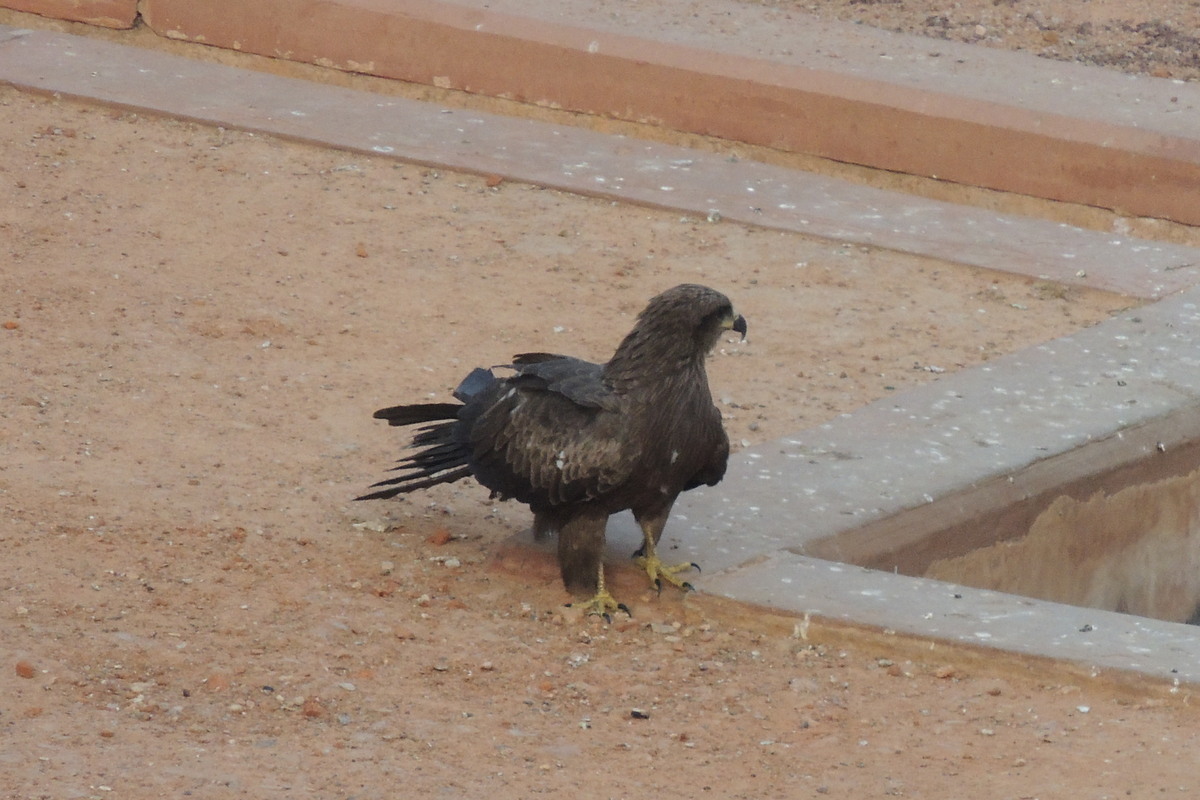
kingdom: Animalia
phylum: Chordata
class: Aves
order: Accipitriformes
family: Accipitridae
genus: Milvus
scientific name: Milvus migrans
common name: Black kite
